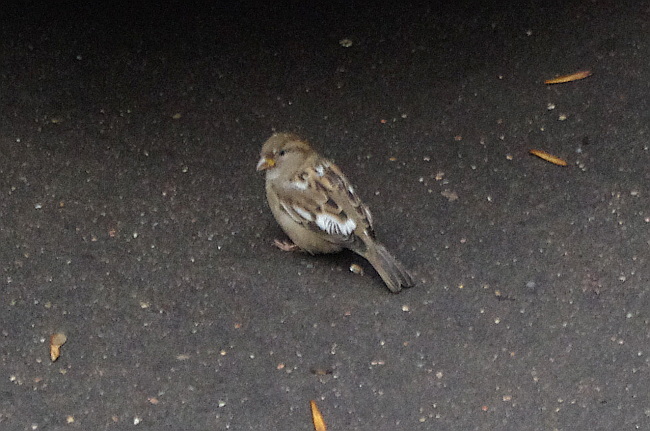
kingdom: Animalia
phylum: Chordata
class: Aves
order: Passeriformes
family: Passeridae
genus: Passer
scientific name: Passer domesticus
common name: House sparrow
